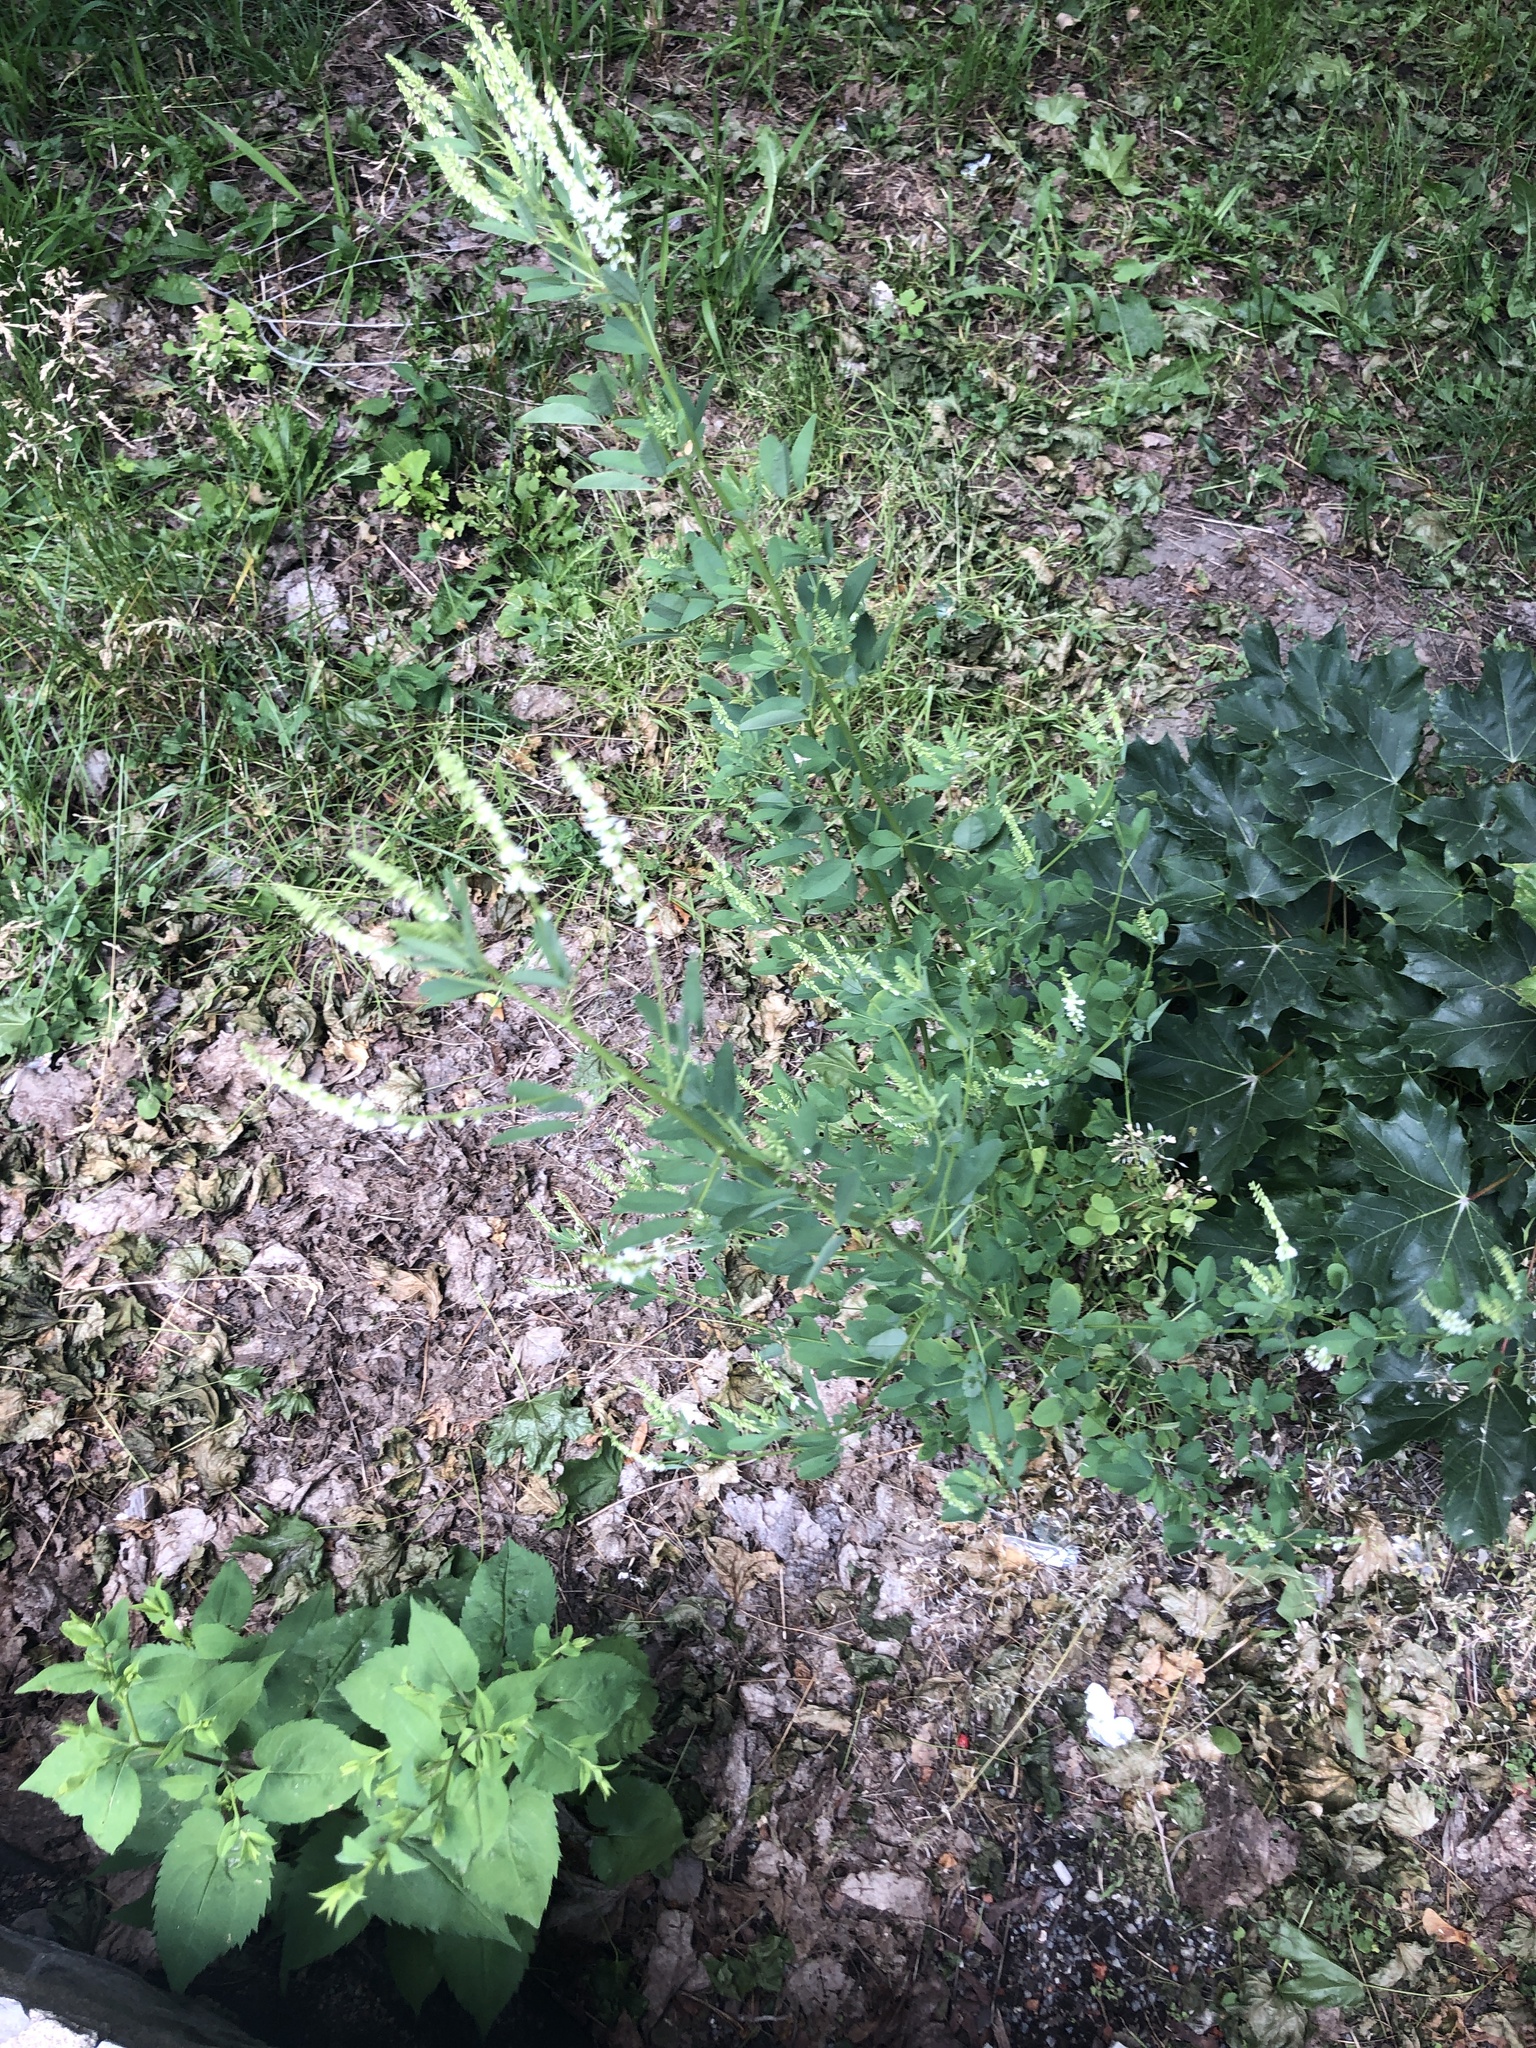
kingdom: Plantae
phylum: Tracheophyta
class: Magnoliopsida
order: Fabales
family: Fabaceae
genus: Melilotus
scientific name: Melilotus albus
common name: White melilot
